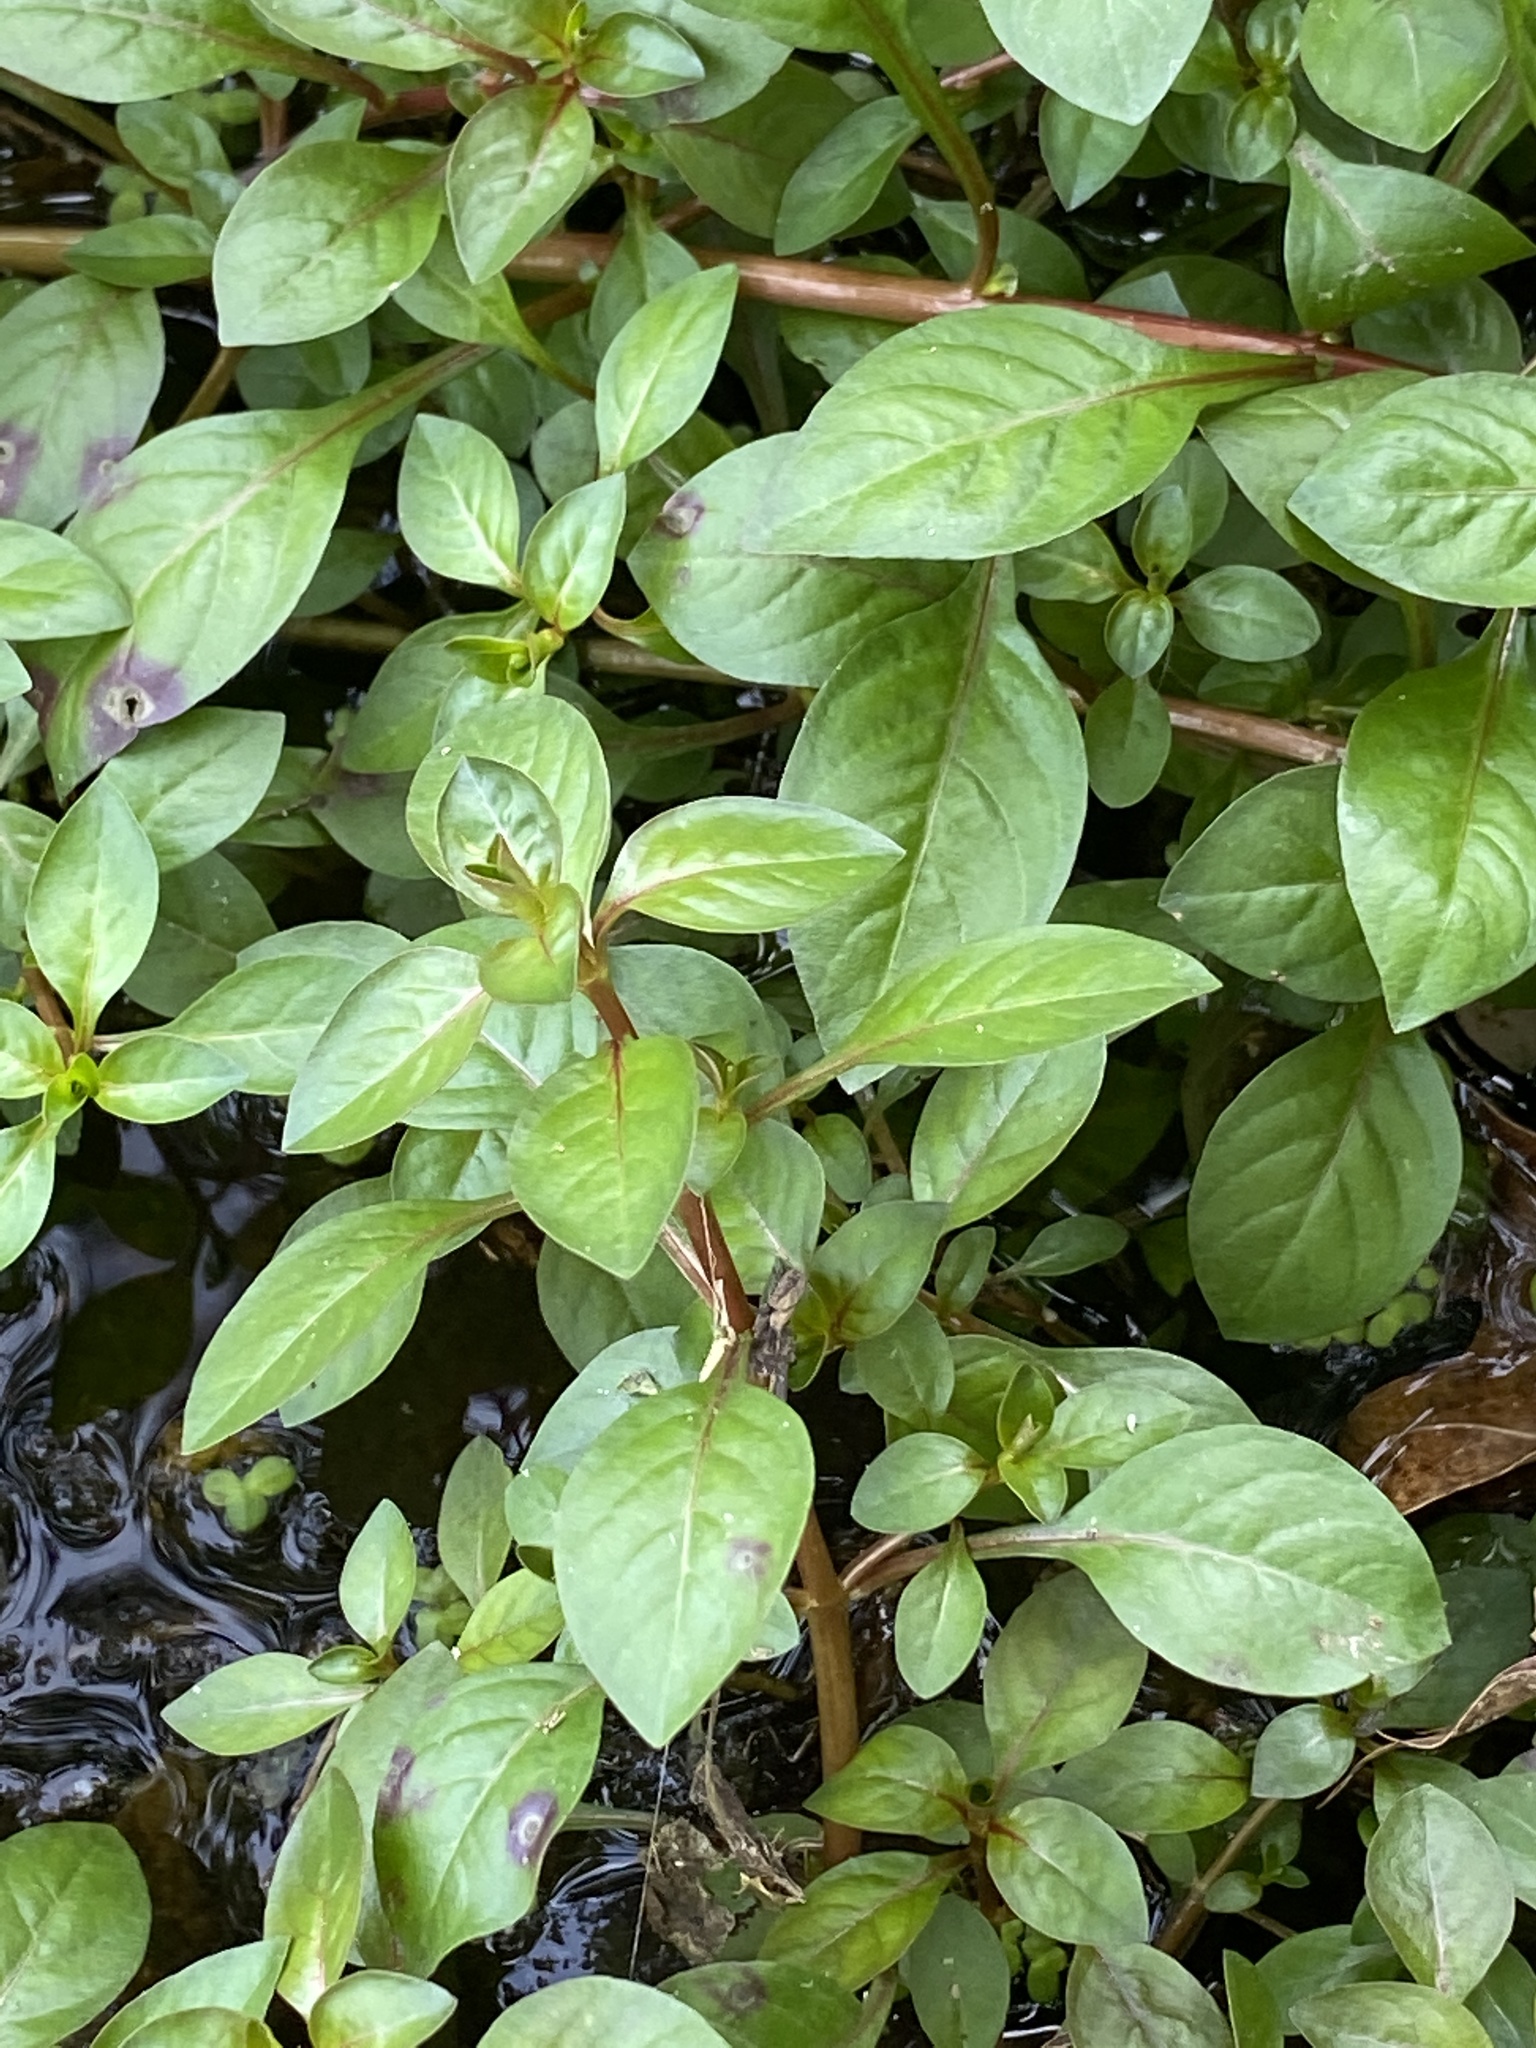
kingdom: Plantae
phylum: Tracheophyta
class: Magnoliopsida
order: Myrtales
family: Onagraceae
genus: Ludwigia
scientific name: Ludwigia palustris
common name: Hampshire-purslane
